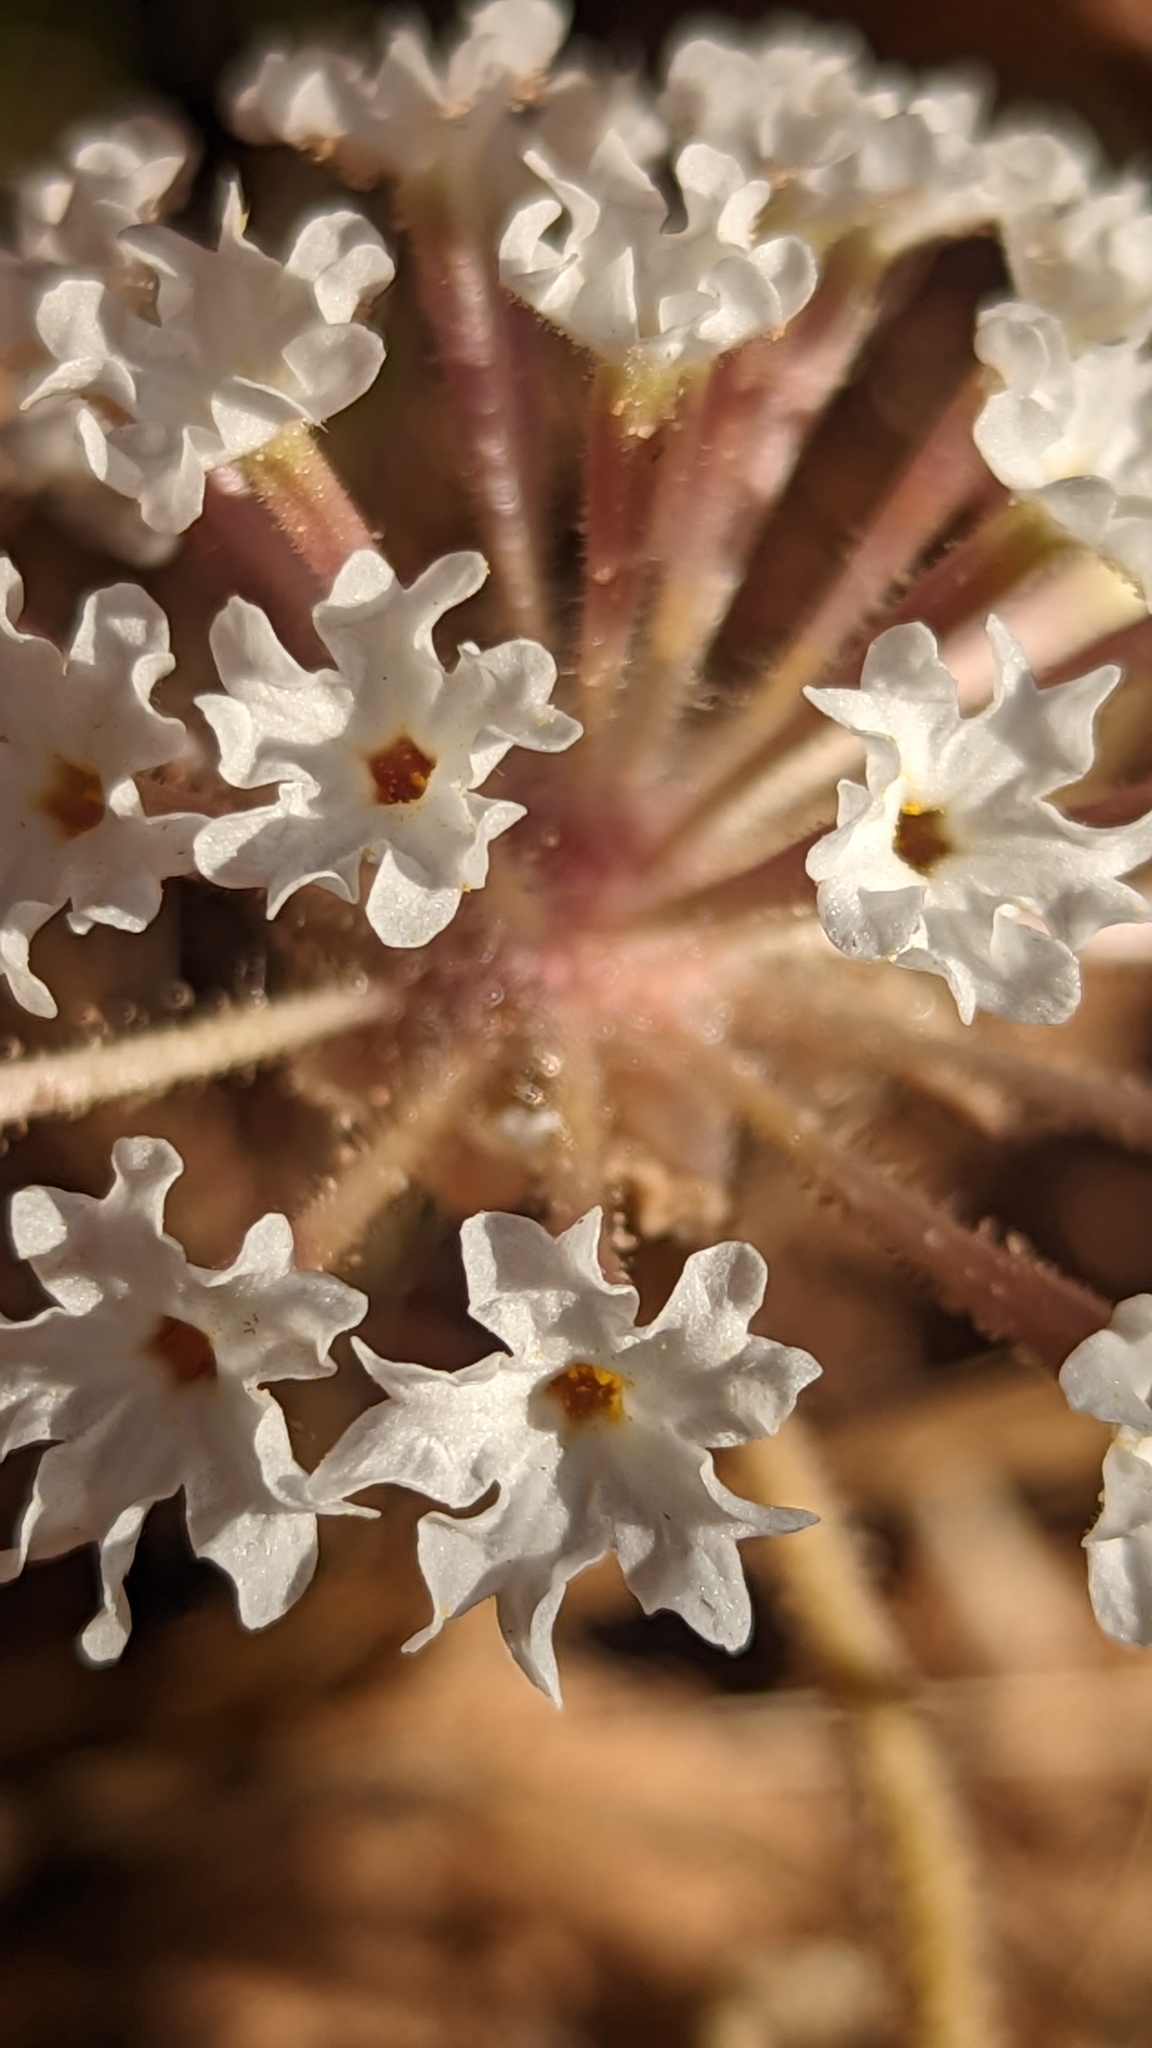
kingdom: Plantae
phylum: Tracheophyta
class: Magnoliopsida
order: Caryophyllales
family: Nyctaginaceae
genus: Abronia
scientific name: Abronia elliptica
